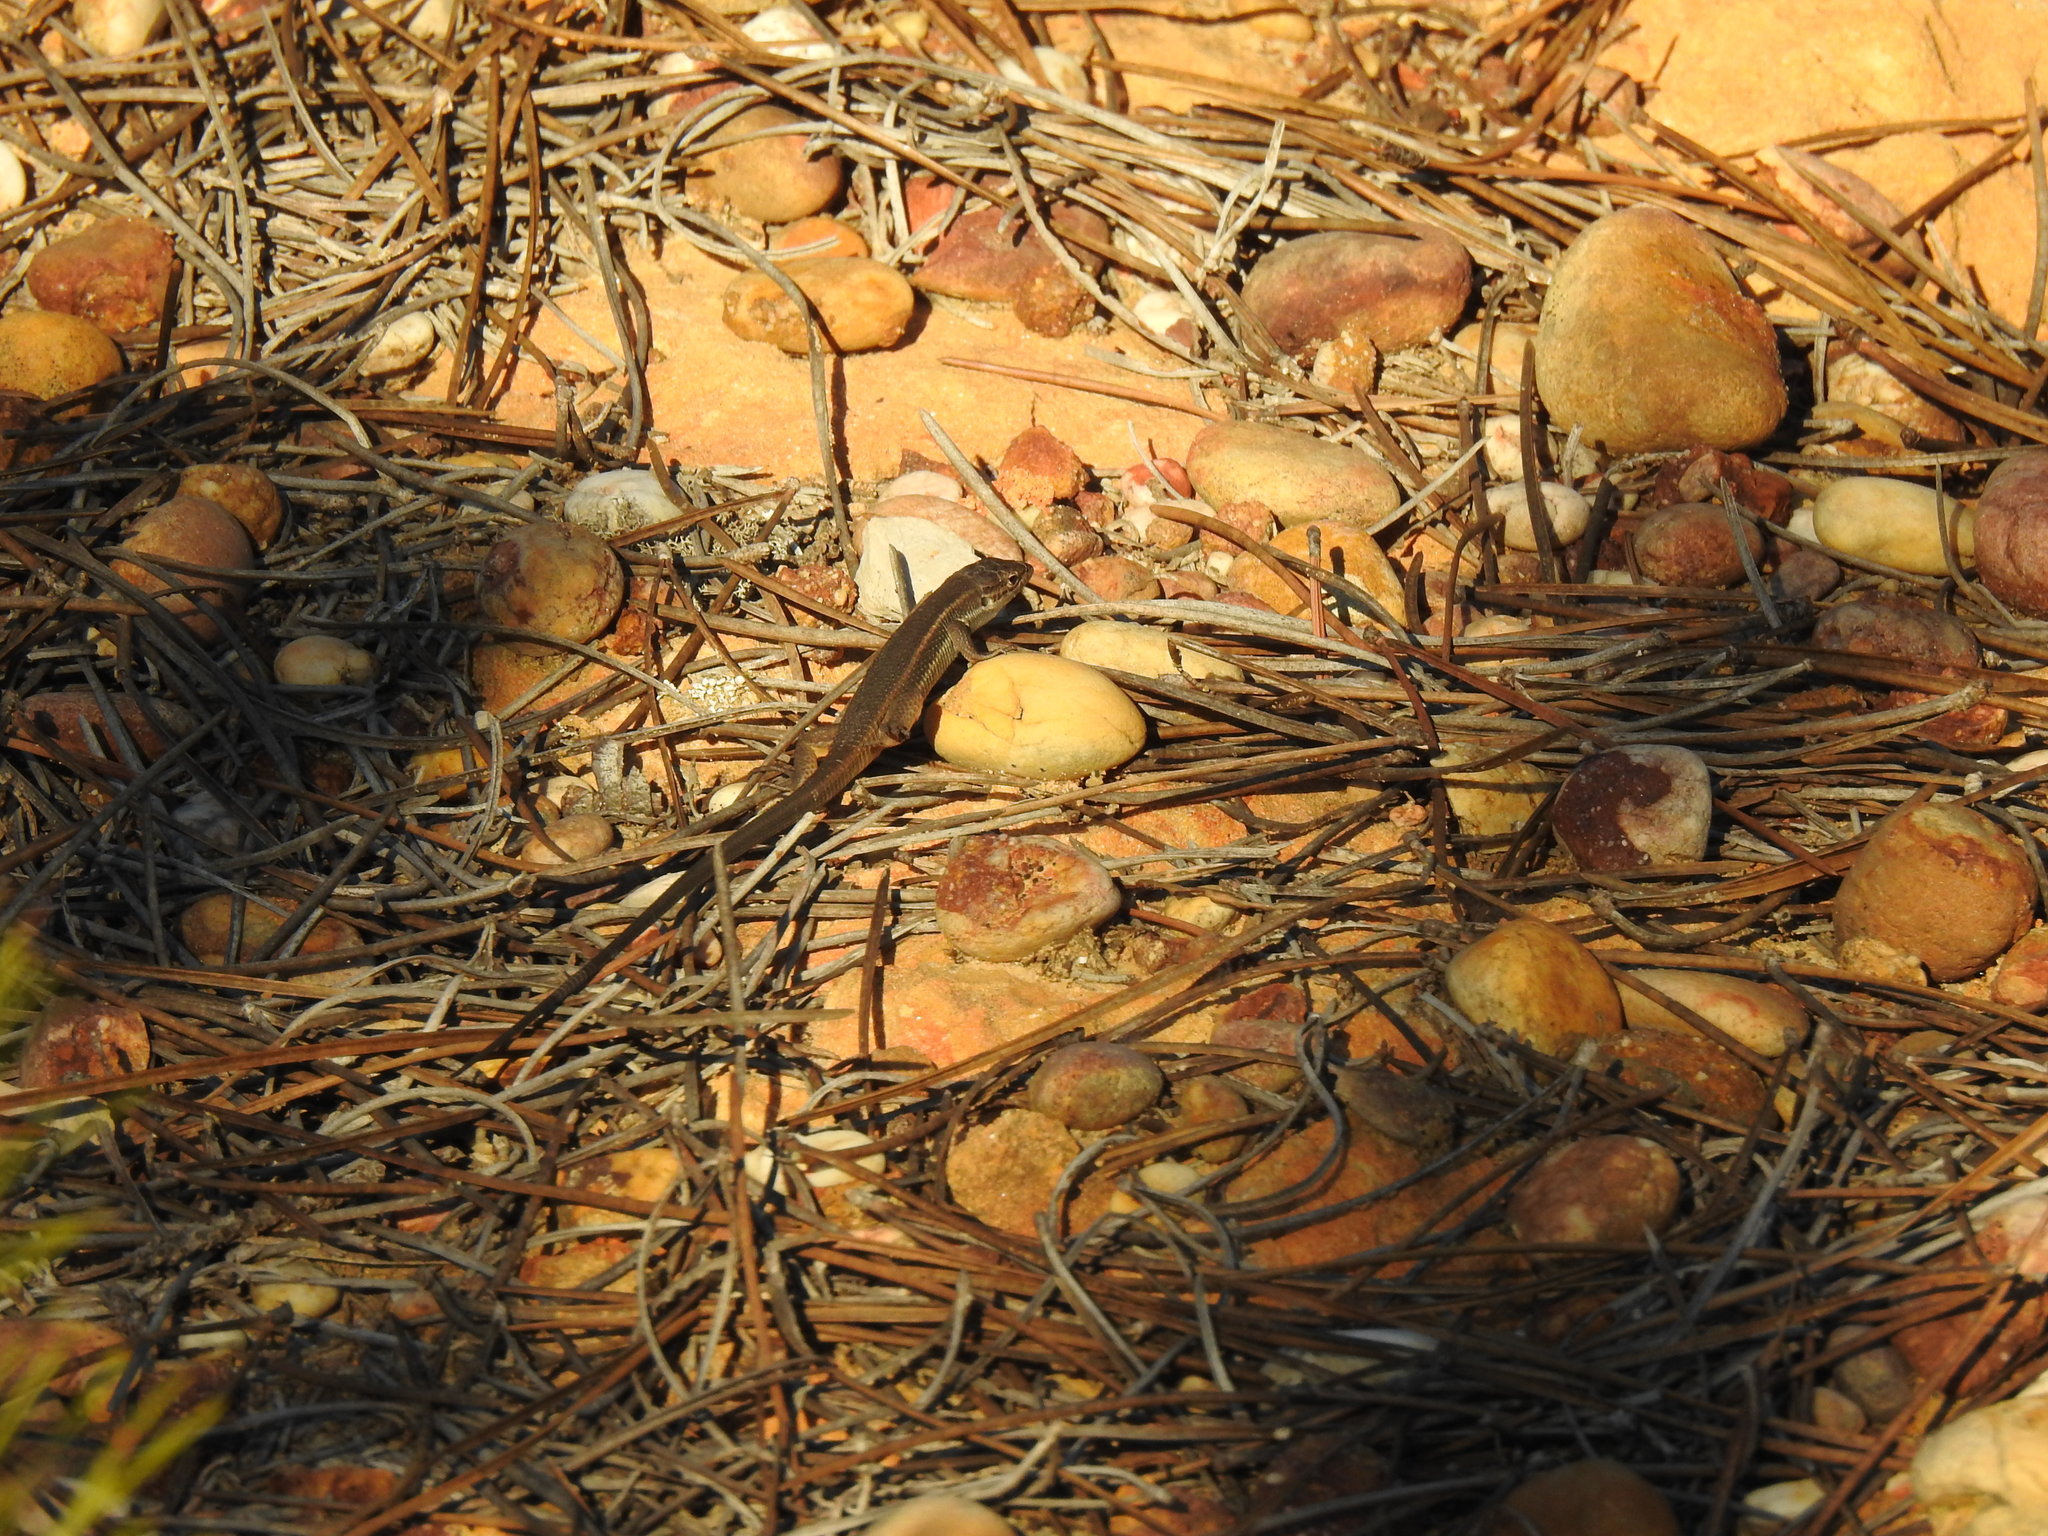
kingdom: Animalia
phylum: Chordata
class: Squamata
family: Lacertidae
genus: Psammodromus
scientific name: Psammodromus algirus
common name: Algerian psammodromus
